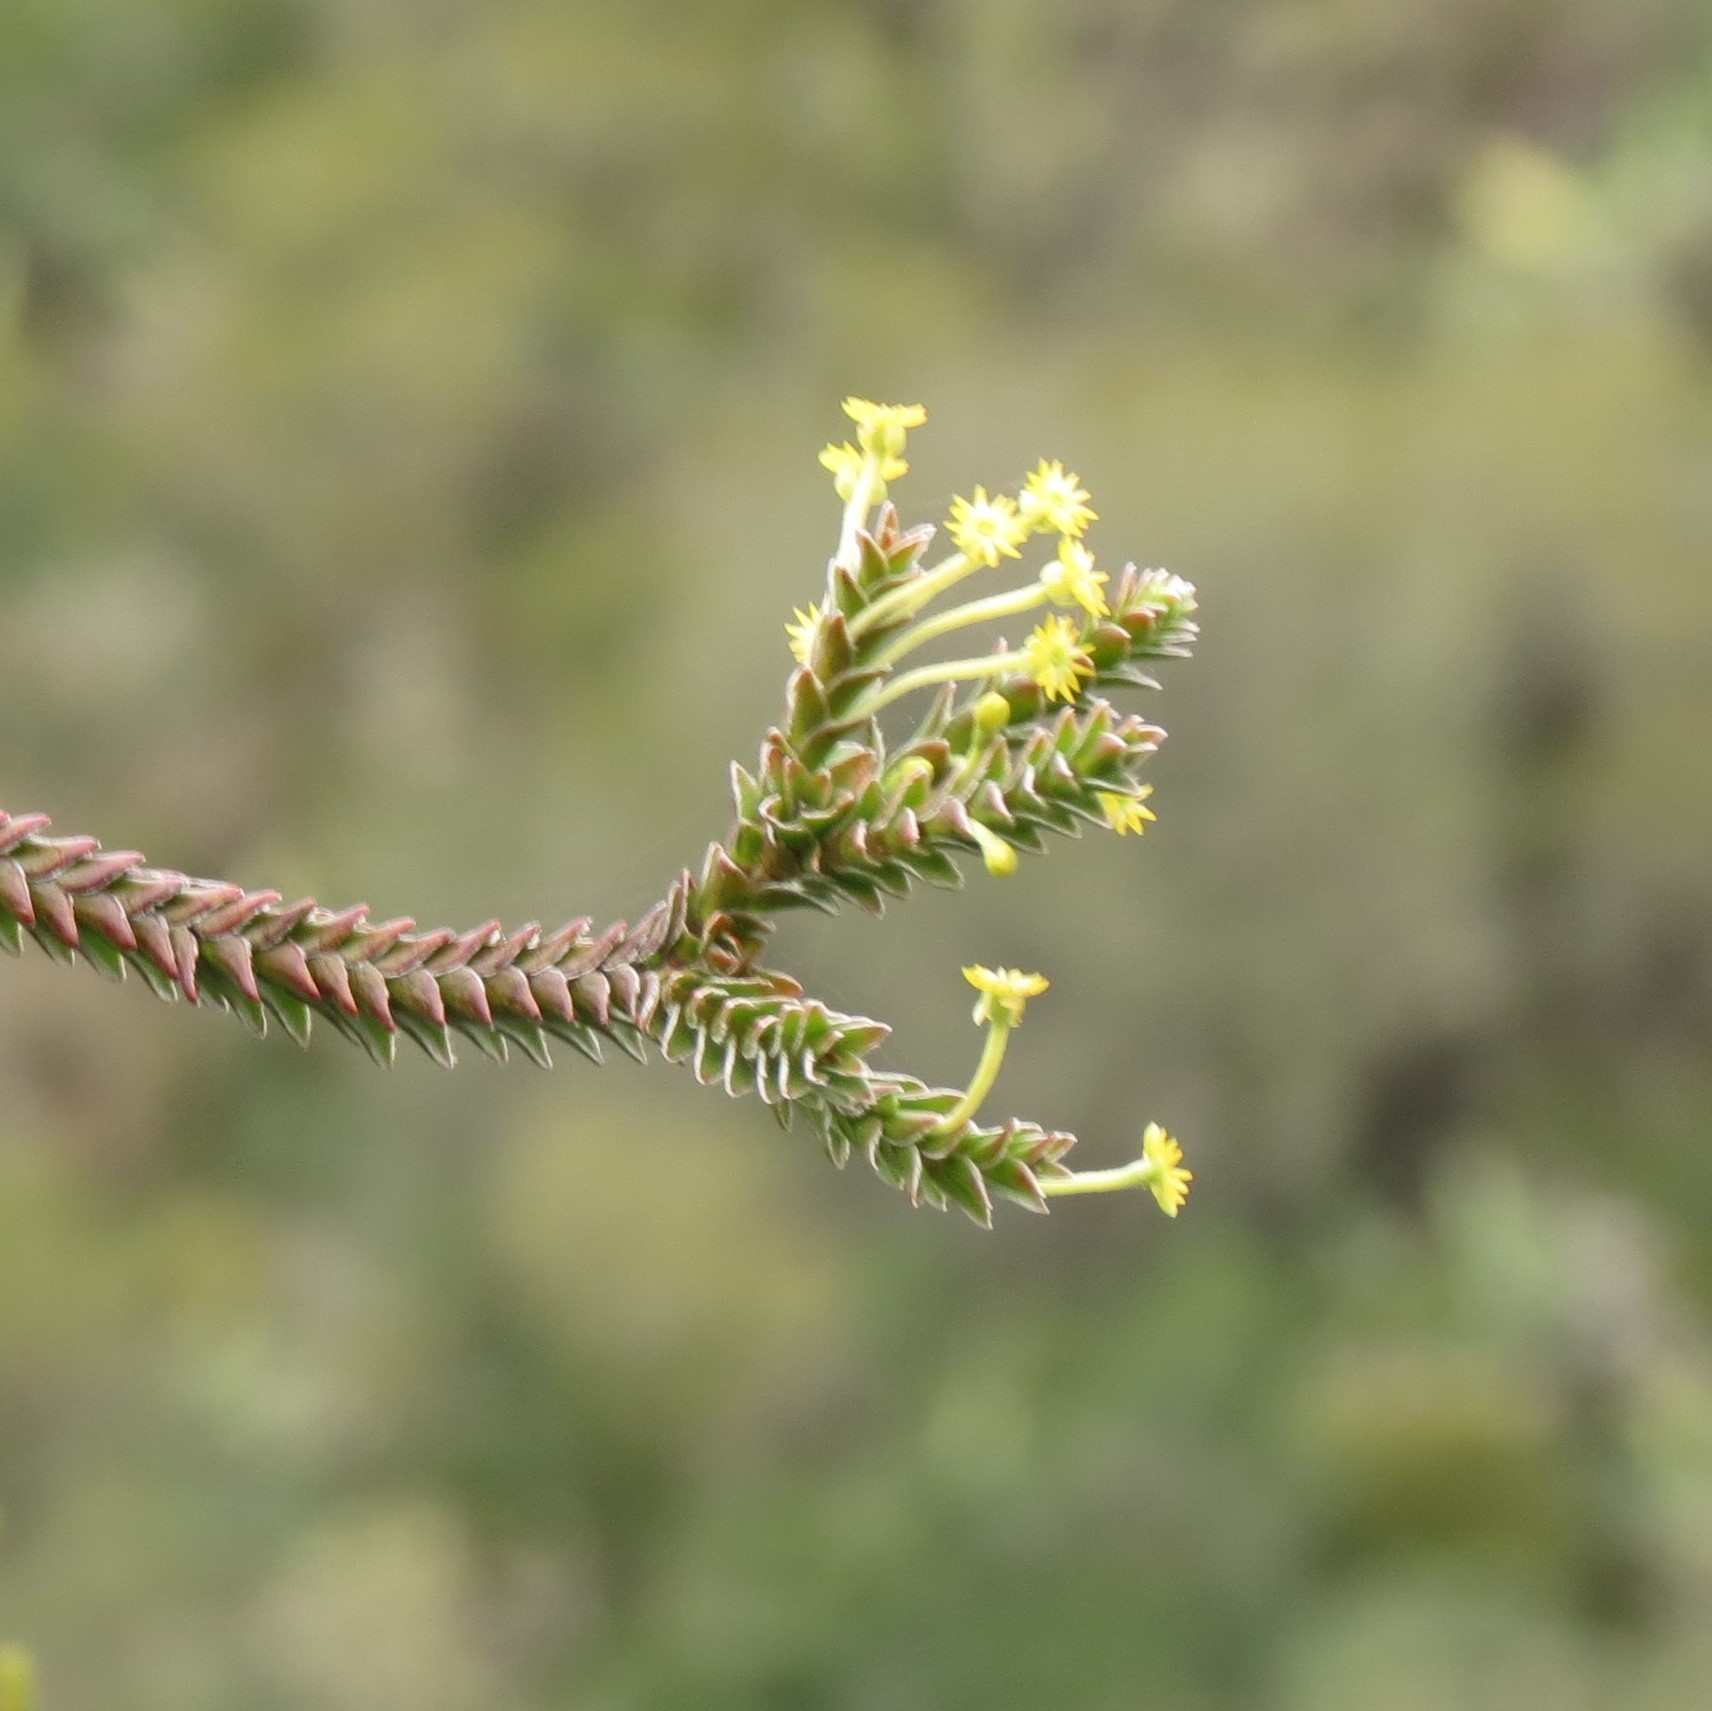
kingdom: Plantae
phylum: Tracheophyta
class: Magnoliopsida
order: Malvales
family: Thymelaeaceae
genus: Struthiola
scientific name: Struthiola argentea
